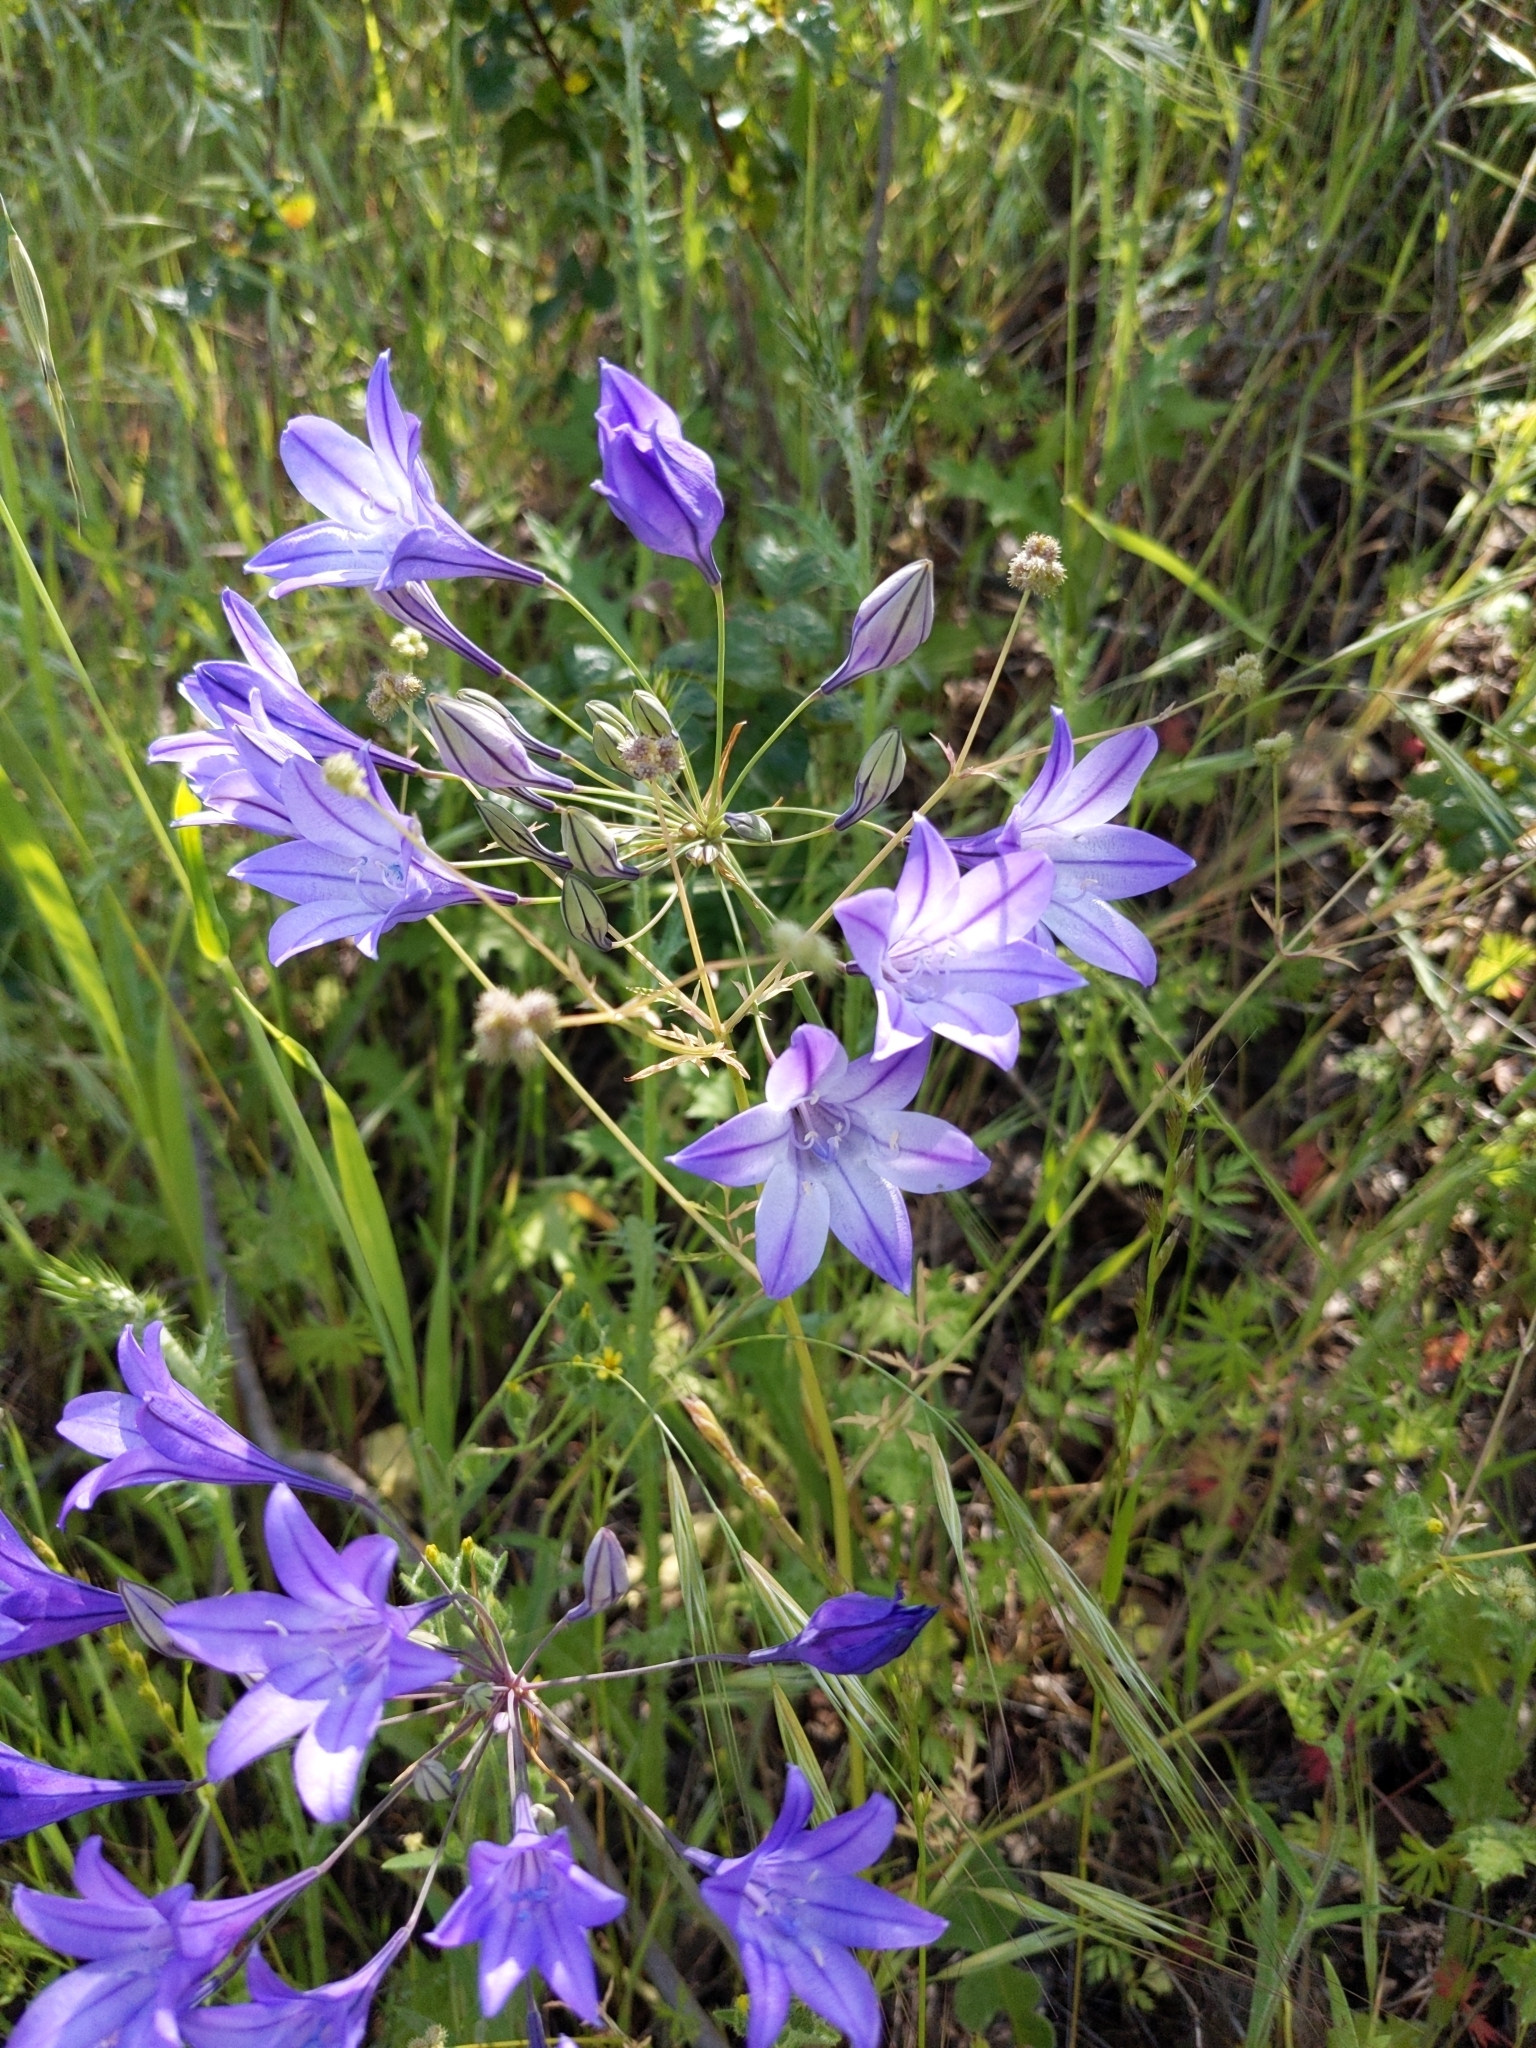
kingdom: Plantae
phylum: Tracheophyta
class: Liliopsida
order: Asparagales
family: Asparagaceae
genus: Triteleia
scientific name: Triteleia laxa
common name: Triplet-lily
